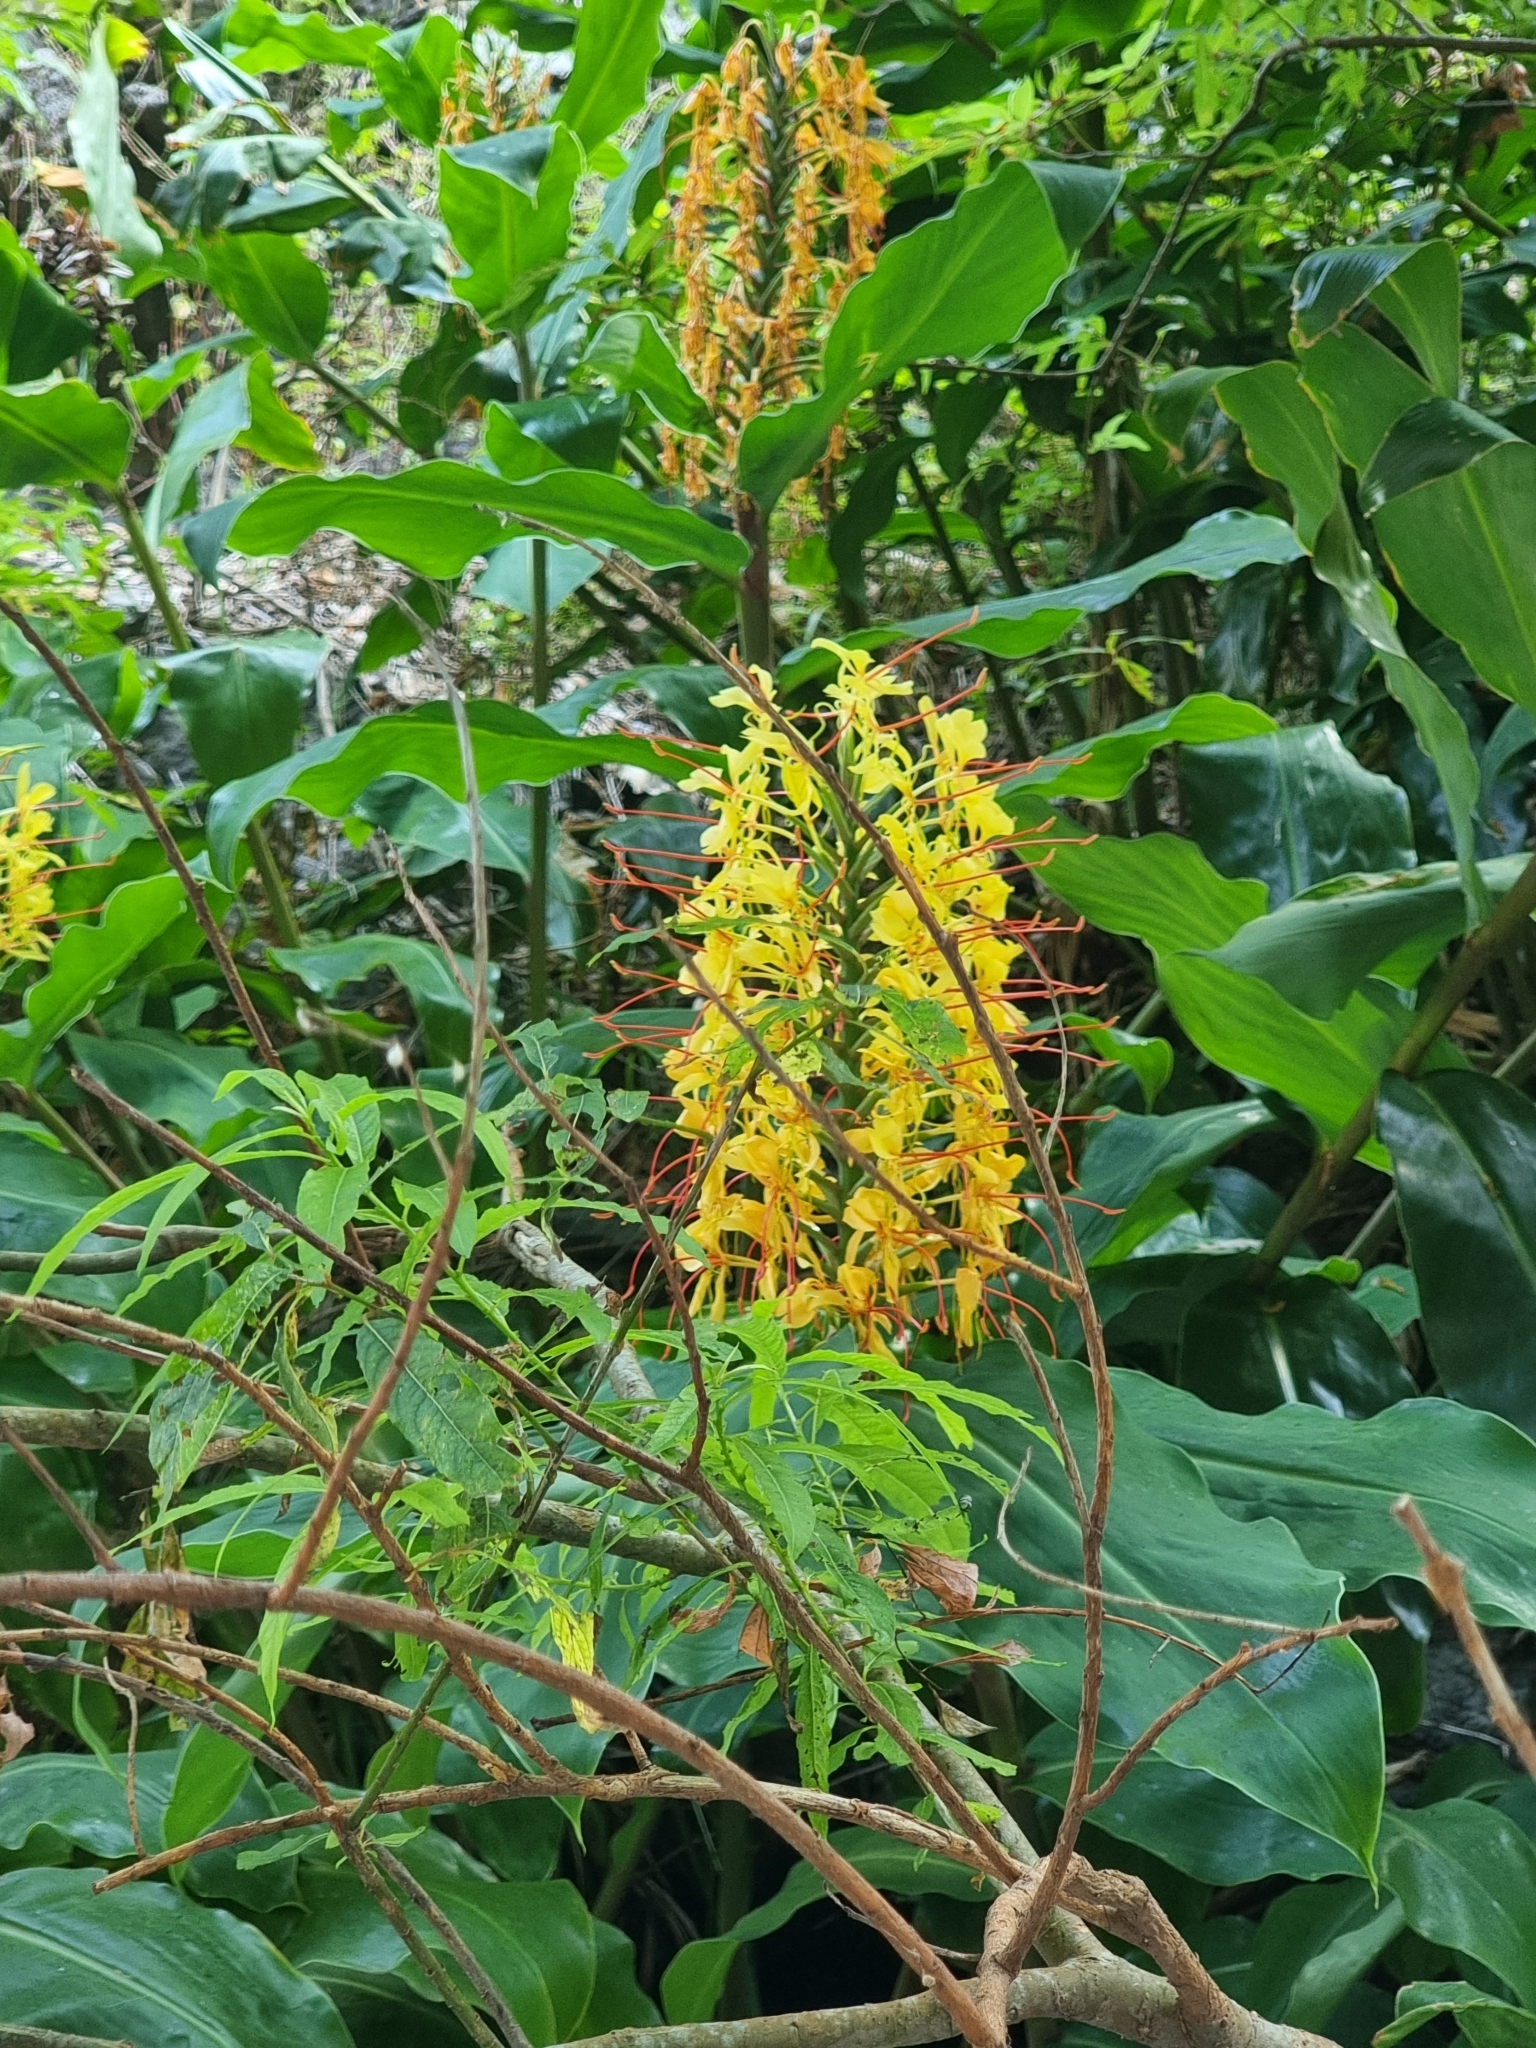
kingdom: Plantae
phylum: Tracheophyta
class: Liliopsida
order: Zingiberales
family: Zingiberaceae
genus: Hedychium
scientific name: Hedychium gardnerianum
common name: Himalayan ginger
